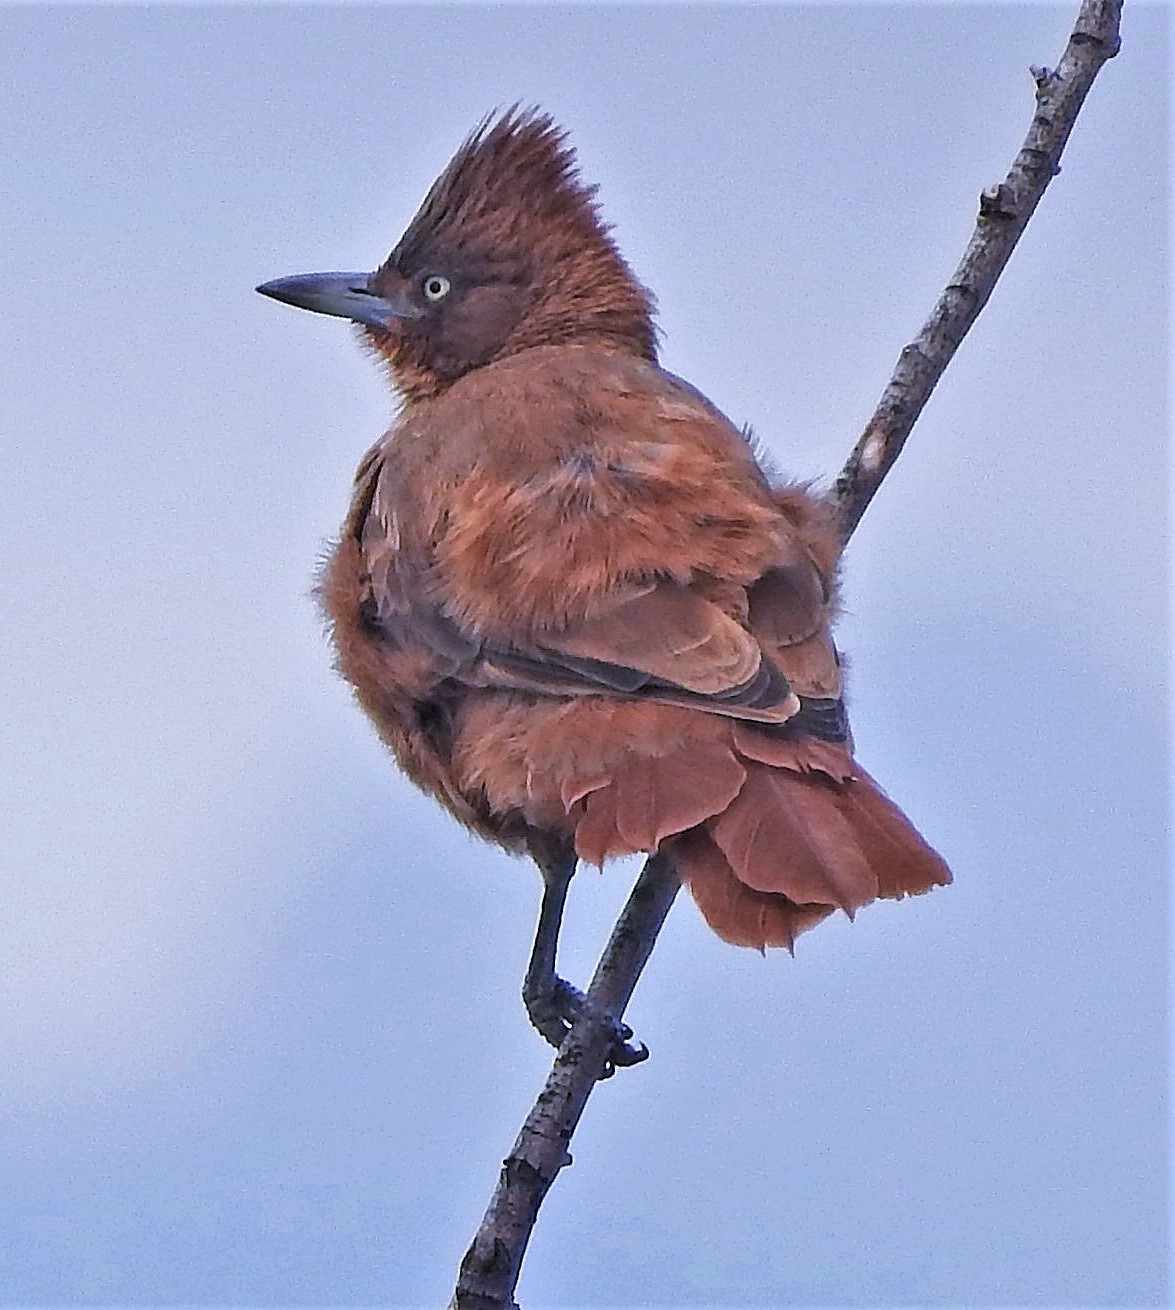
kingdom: Animalia
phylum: Chordata
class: Aves
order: Passeriformes
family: Furnariidae
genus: Pseudoseisura
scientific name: Pseudoseisura lophotes
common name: Brown cacholote
